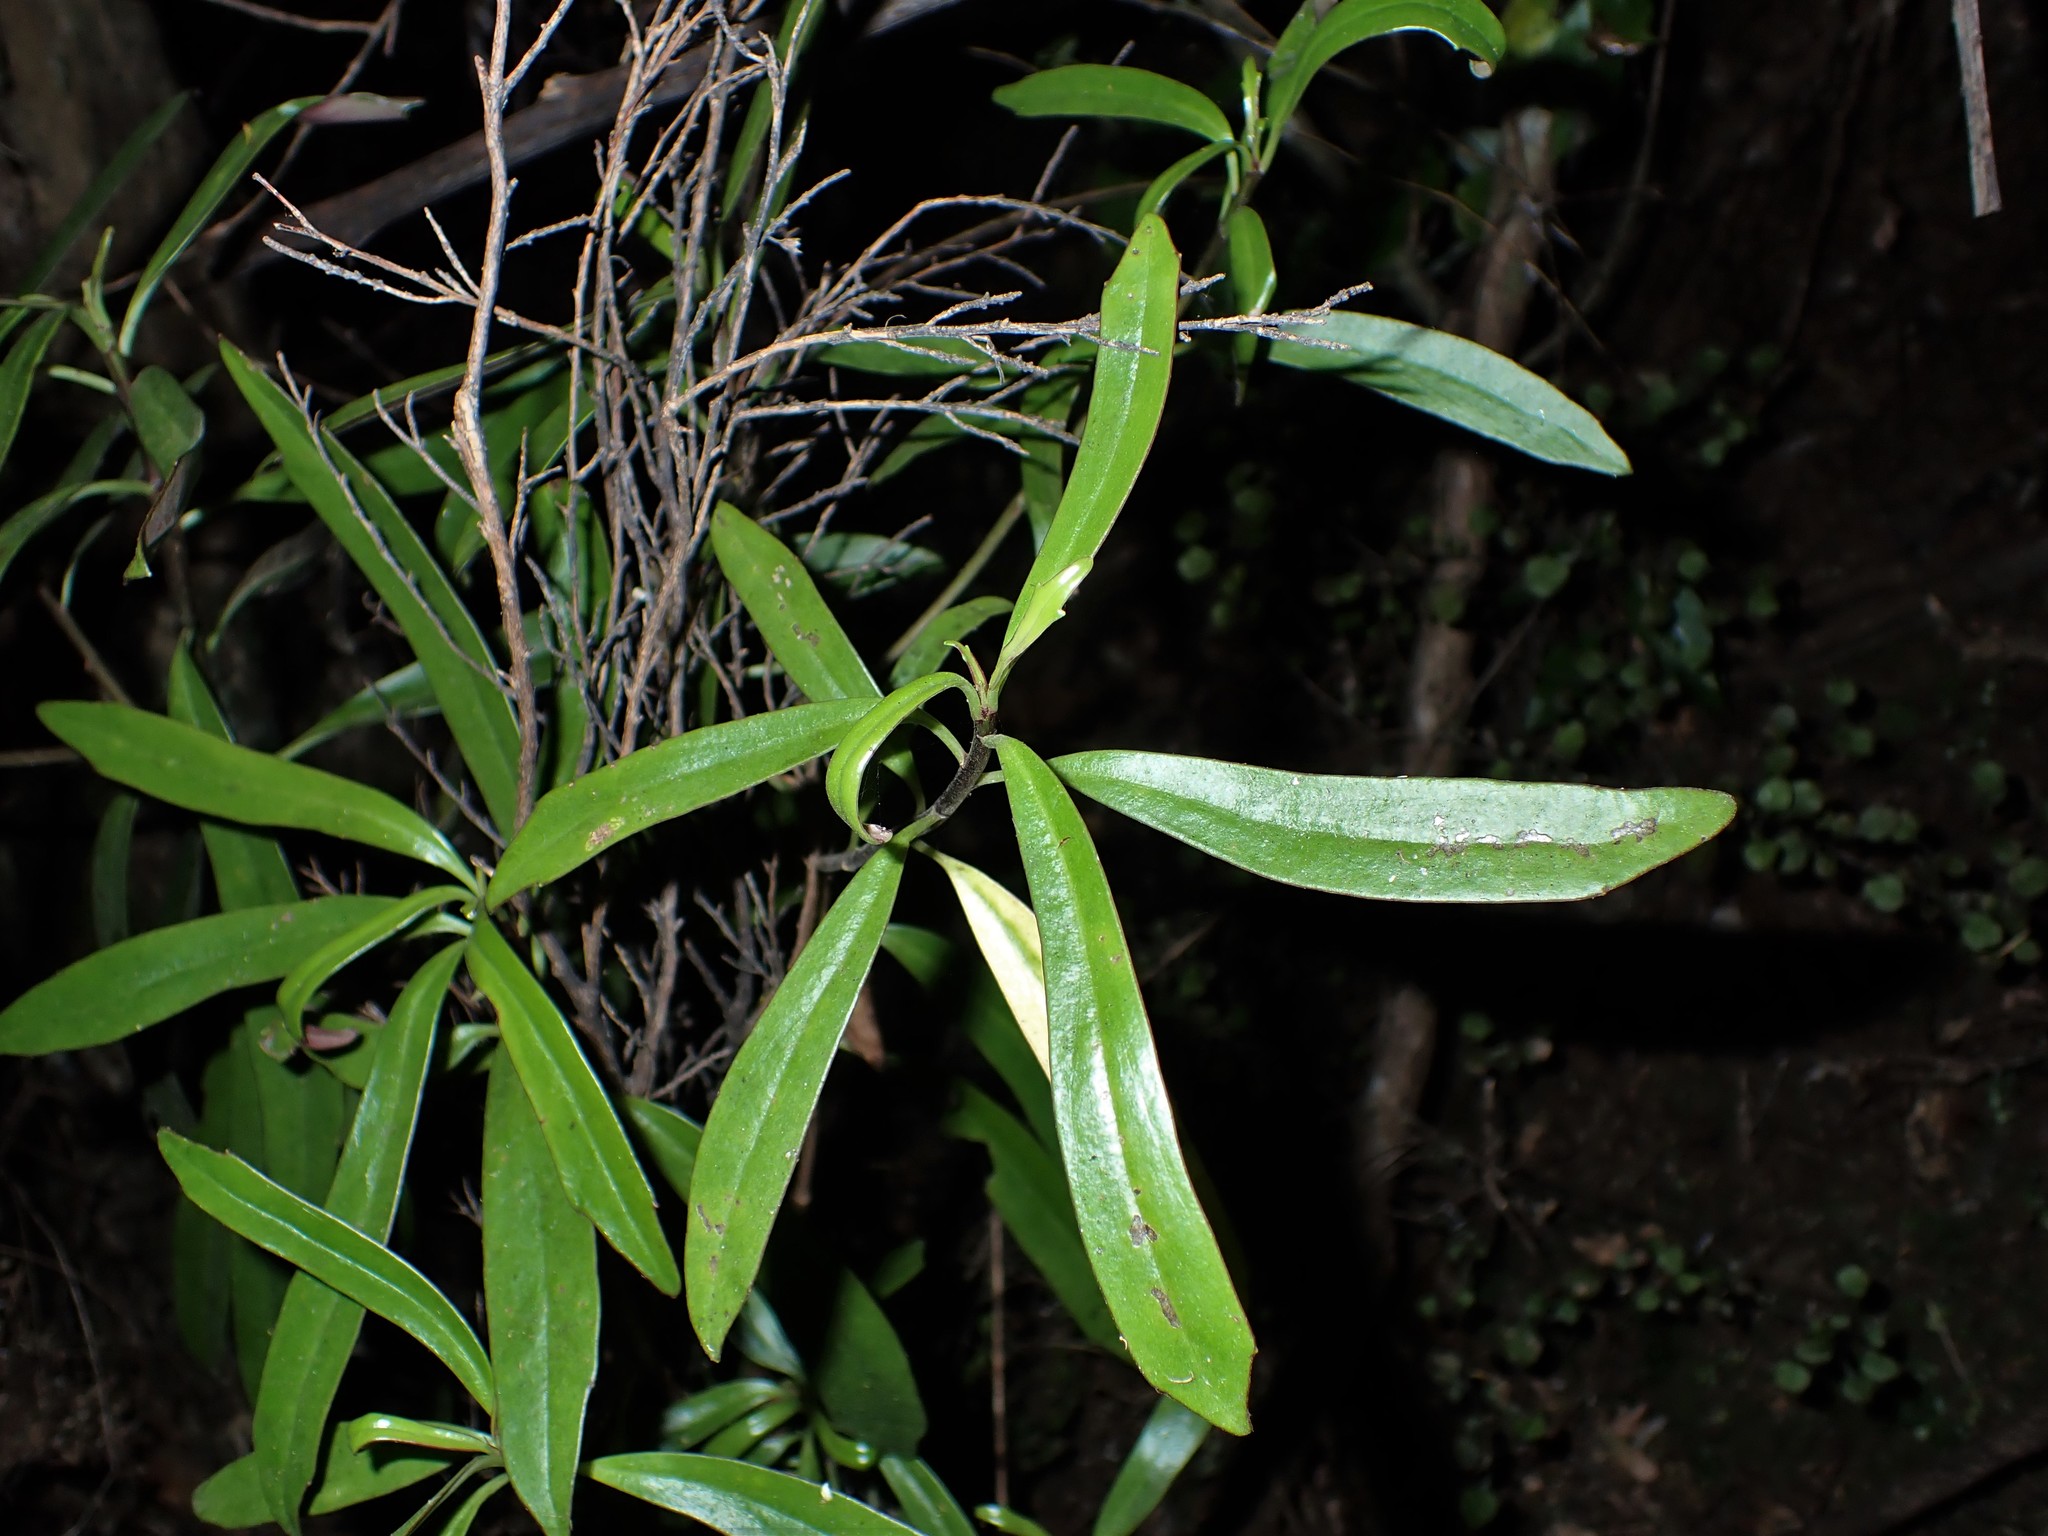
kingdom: Plantae
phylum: Tracheophyta
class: Magnoliopsida
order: Asterales
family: Asteraceae
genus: Brachyglottis
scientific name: Brachyglottis kirkii
